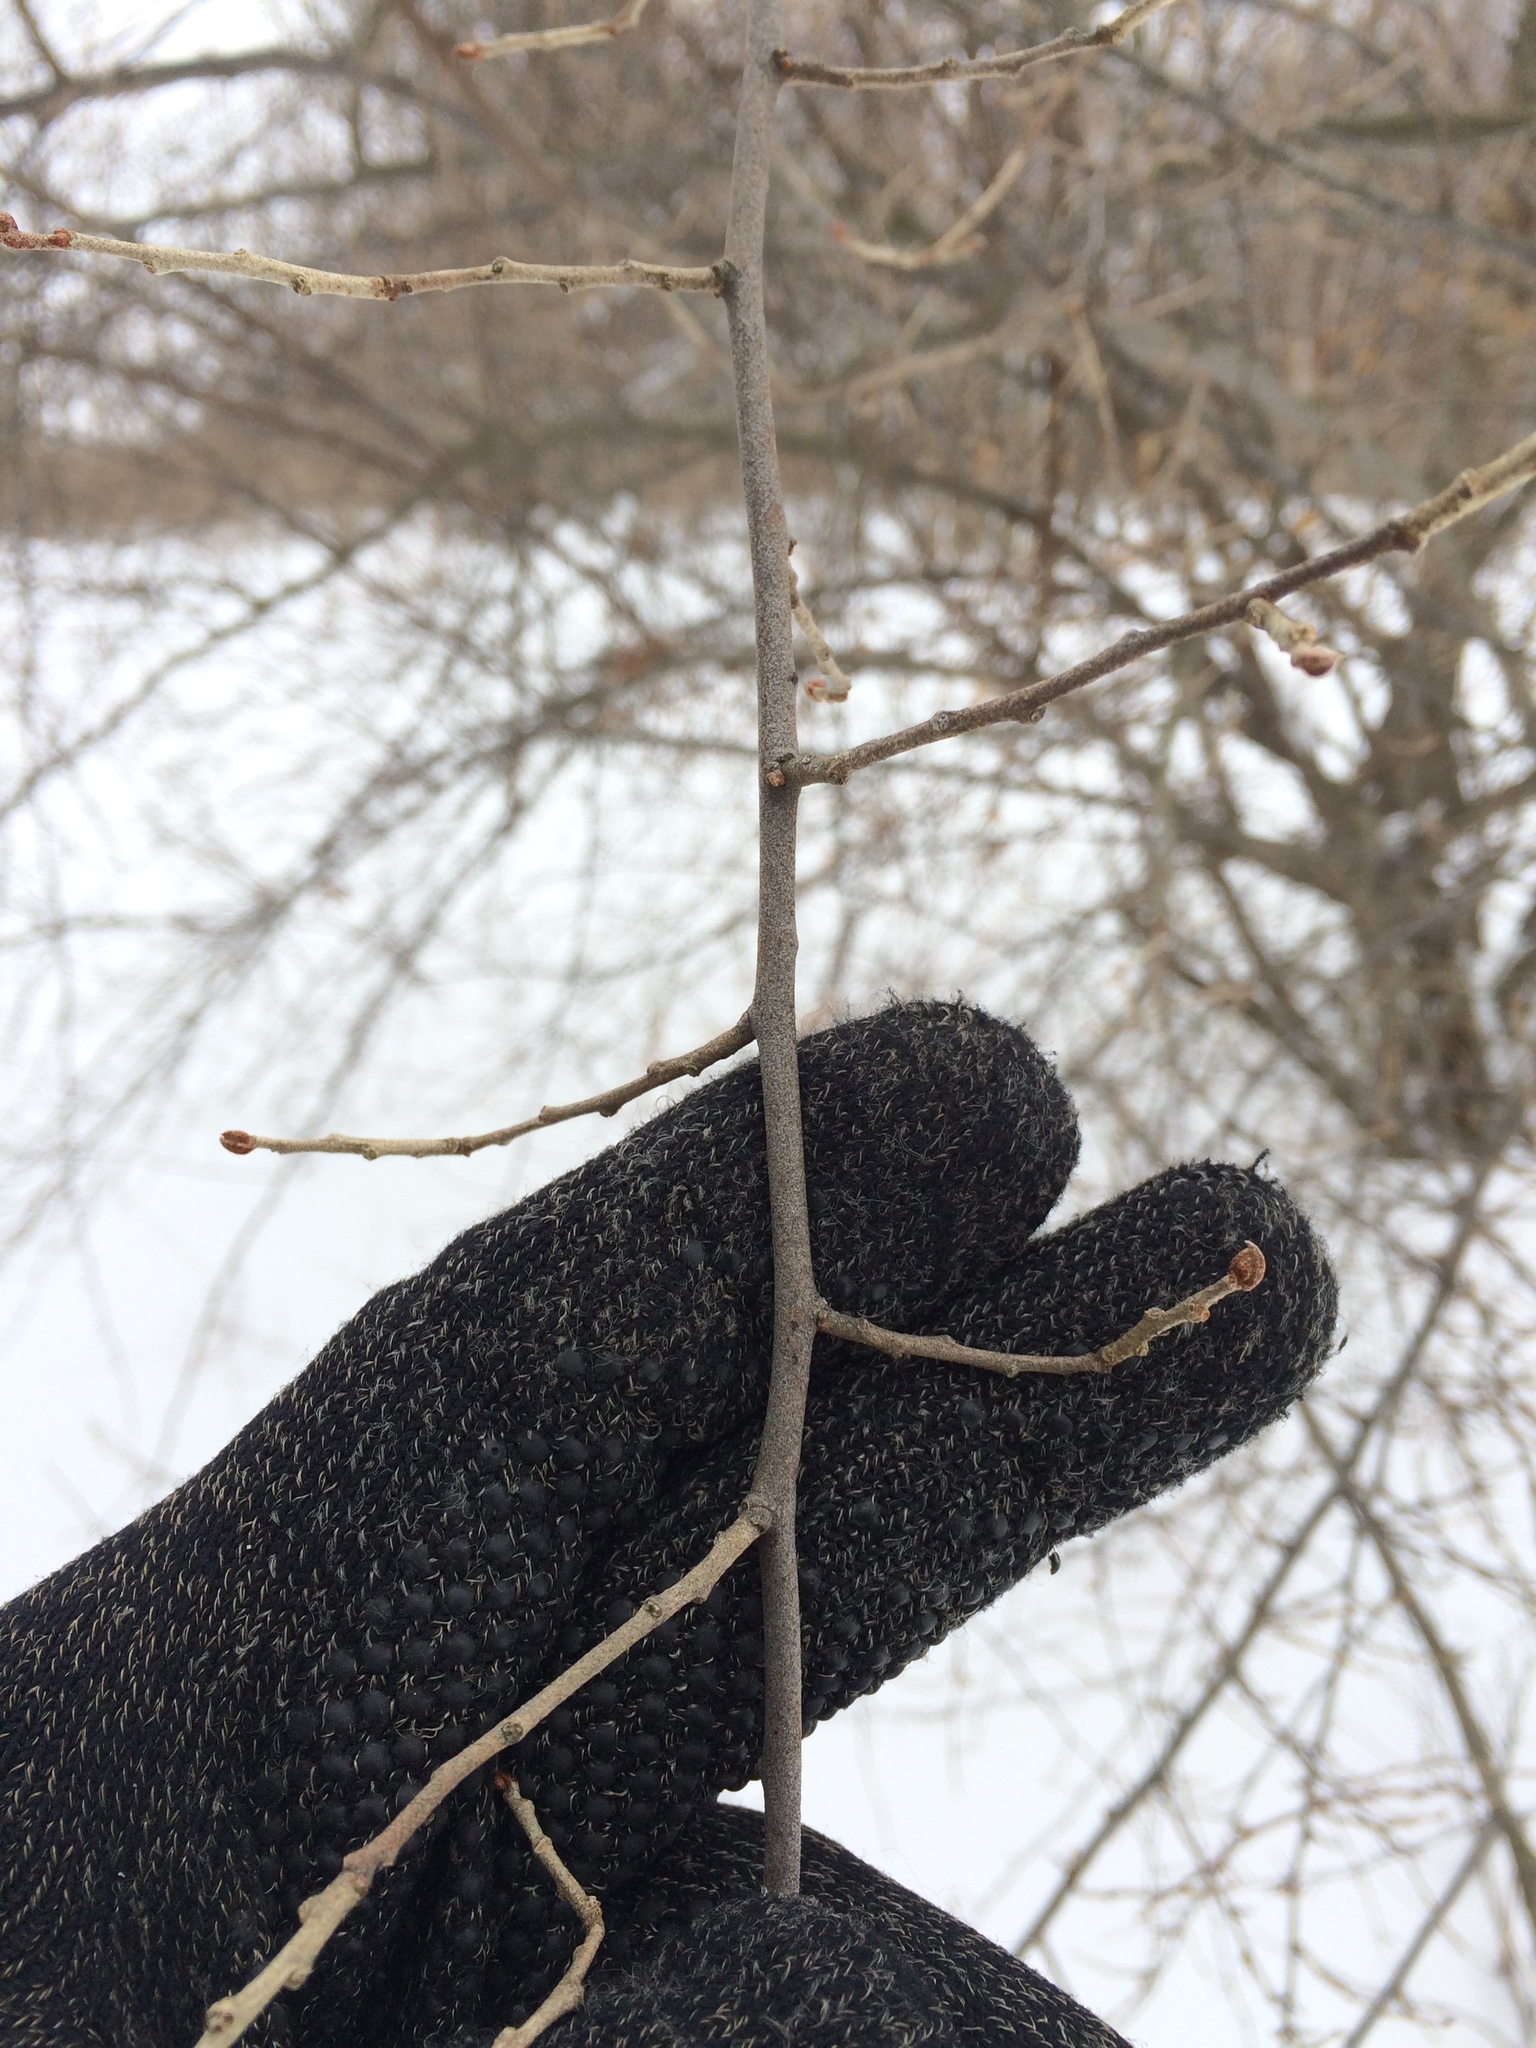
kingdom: Plantae
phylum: Tracheophyta
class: Magnoliopsida
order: Rosales
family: Elaeagnaceae
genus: Elaeagnus
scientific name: Elaeagnus umbellata
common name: Autumn olive
